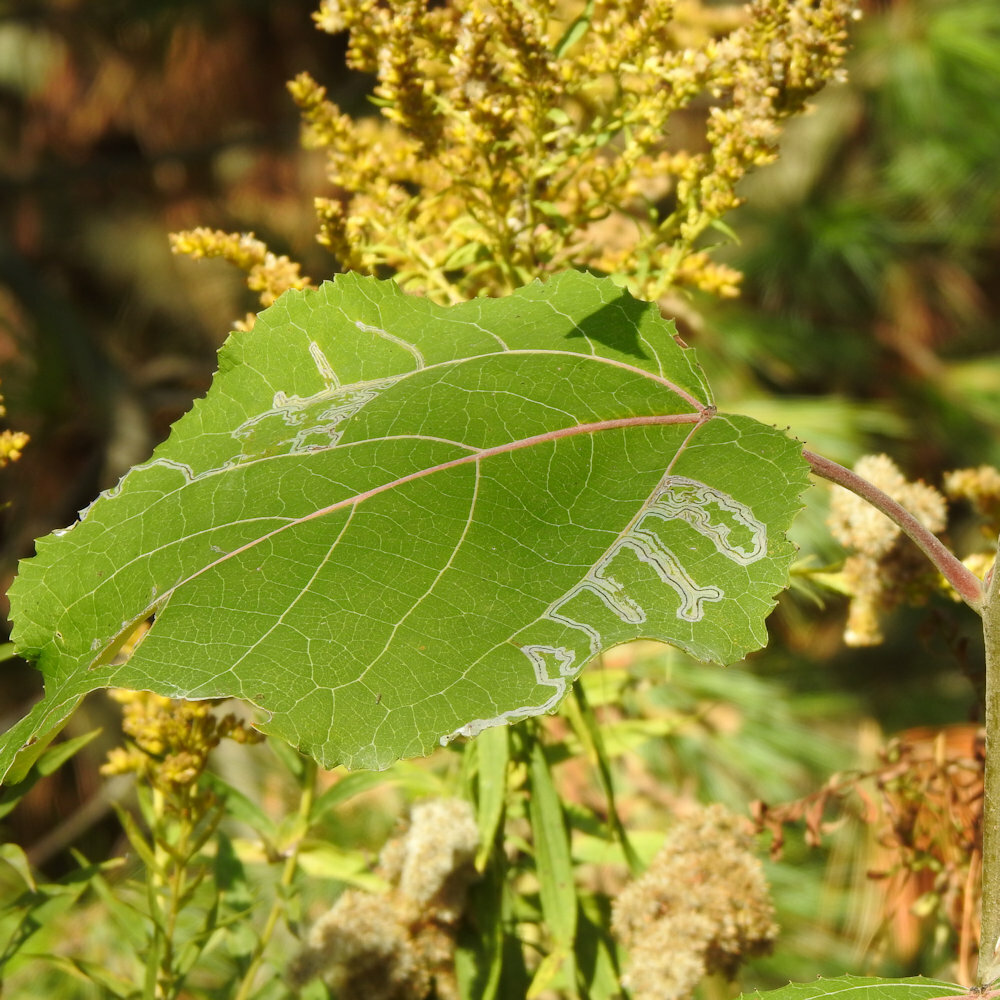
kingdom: Animalia
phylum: Arthropoda
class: Insecta
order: Lepidoptera
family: Gracillariidae
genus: Phyllocnistis
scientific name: Phyllocnistis populiella
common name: Aspen serpentine leafminer moth
